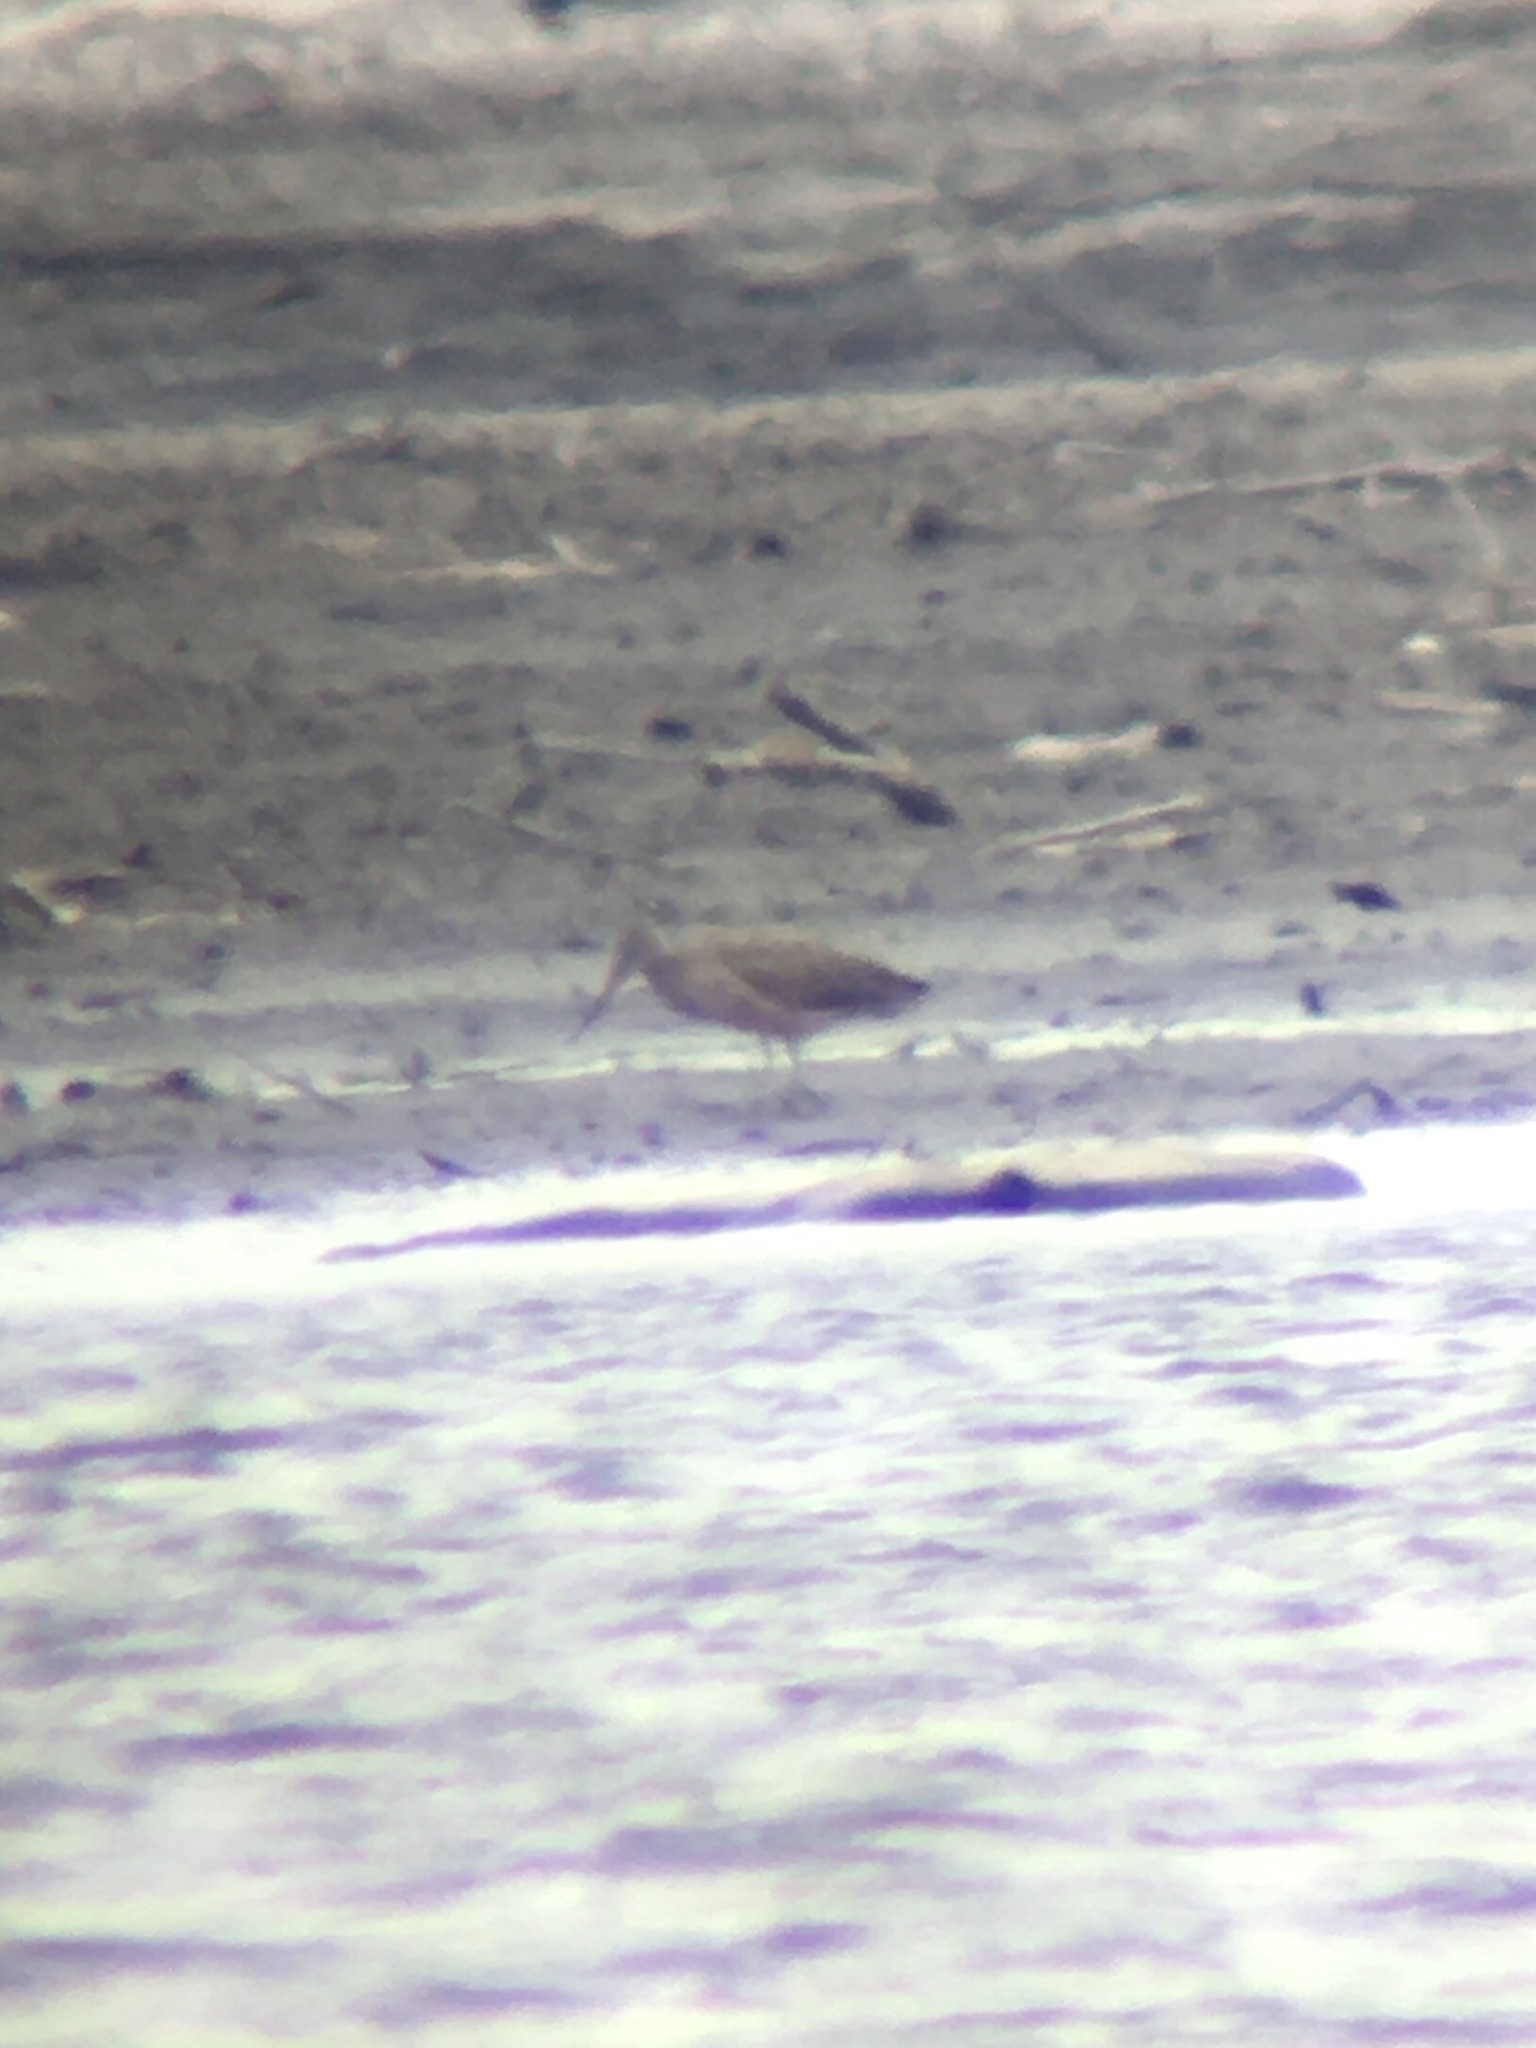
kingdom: Animalia
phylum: Chordata
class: Aves
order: Charadriiformes
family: Scolopacidae
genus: Limosa
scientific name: Limosa fedoa
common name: Marbled godwit
